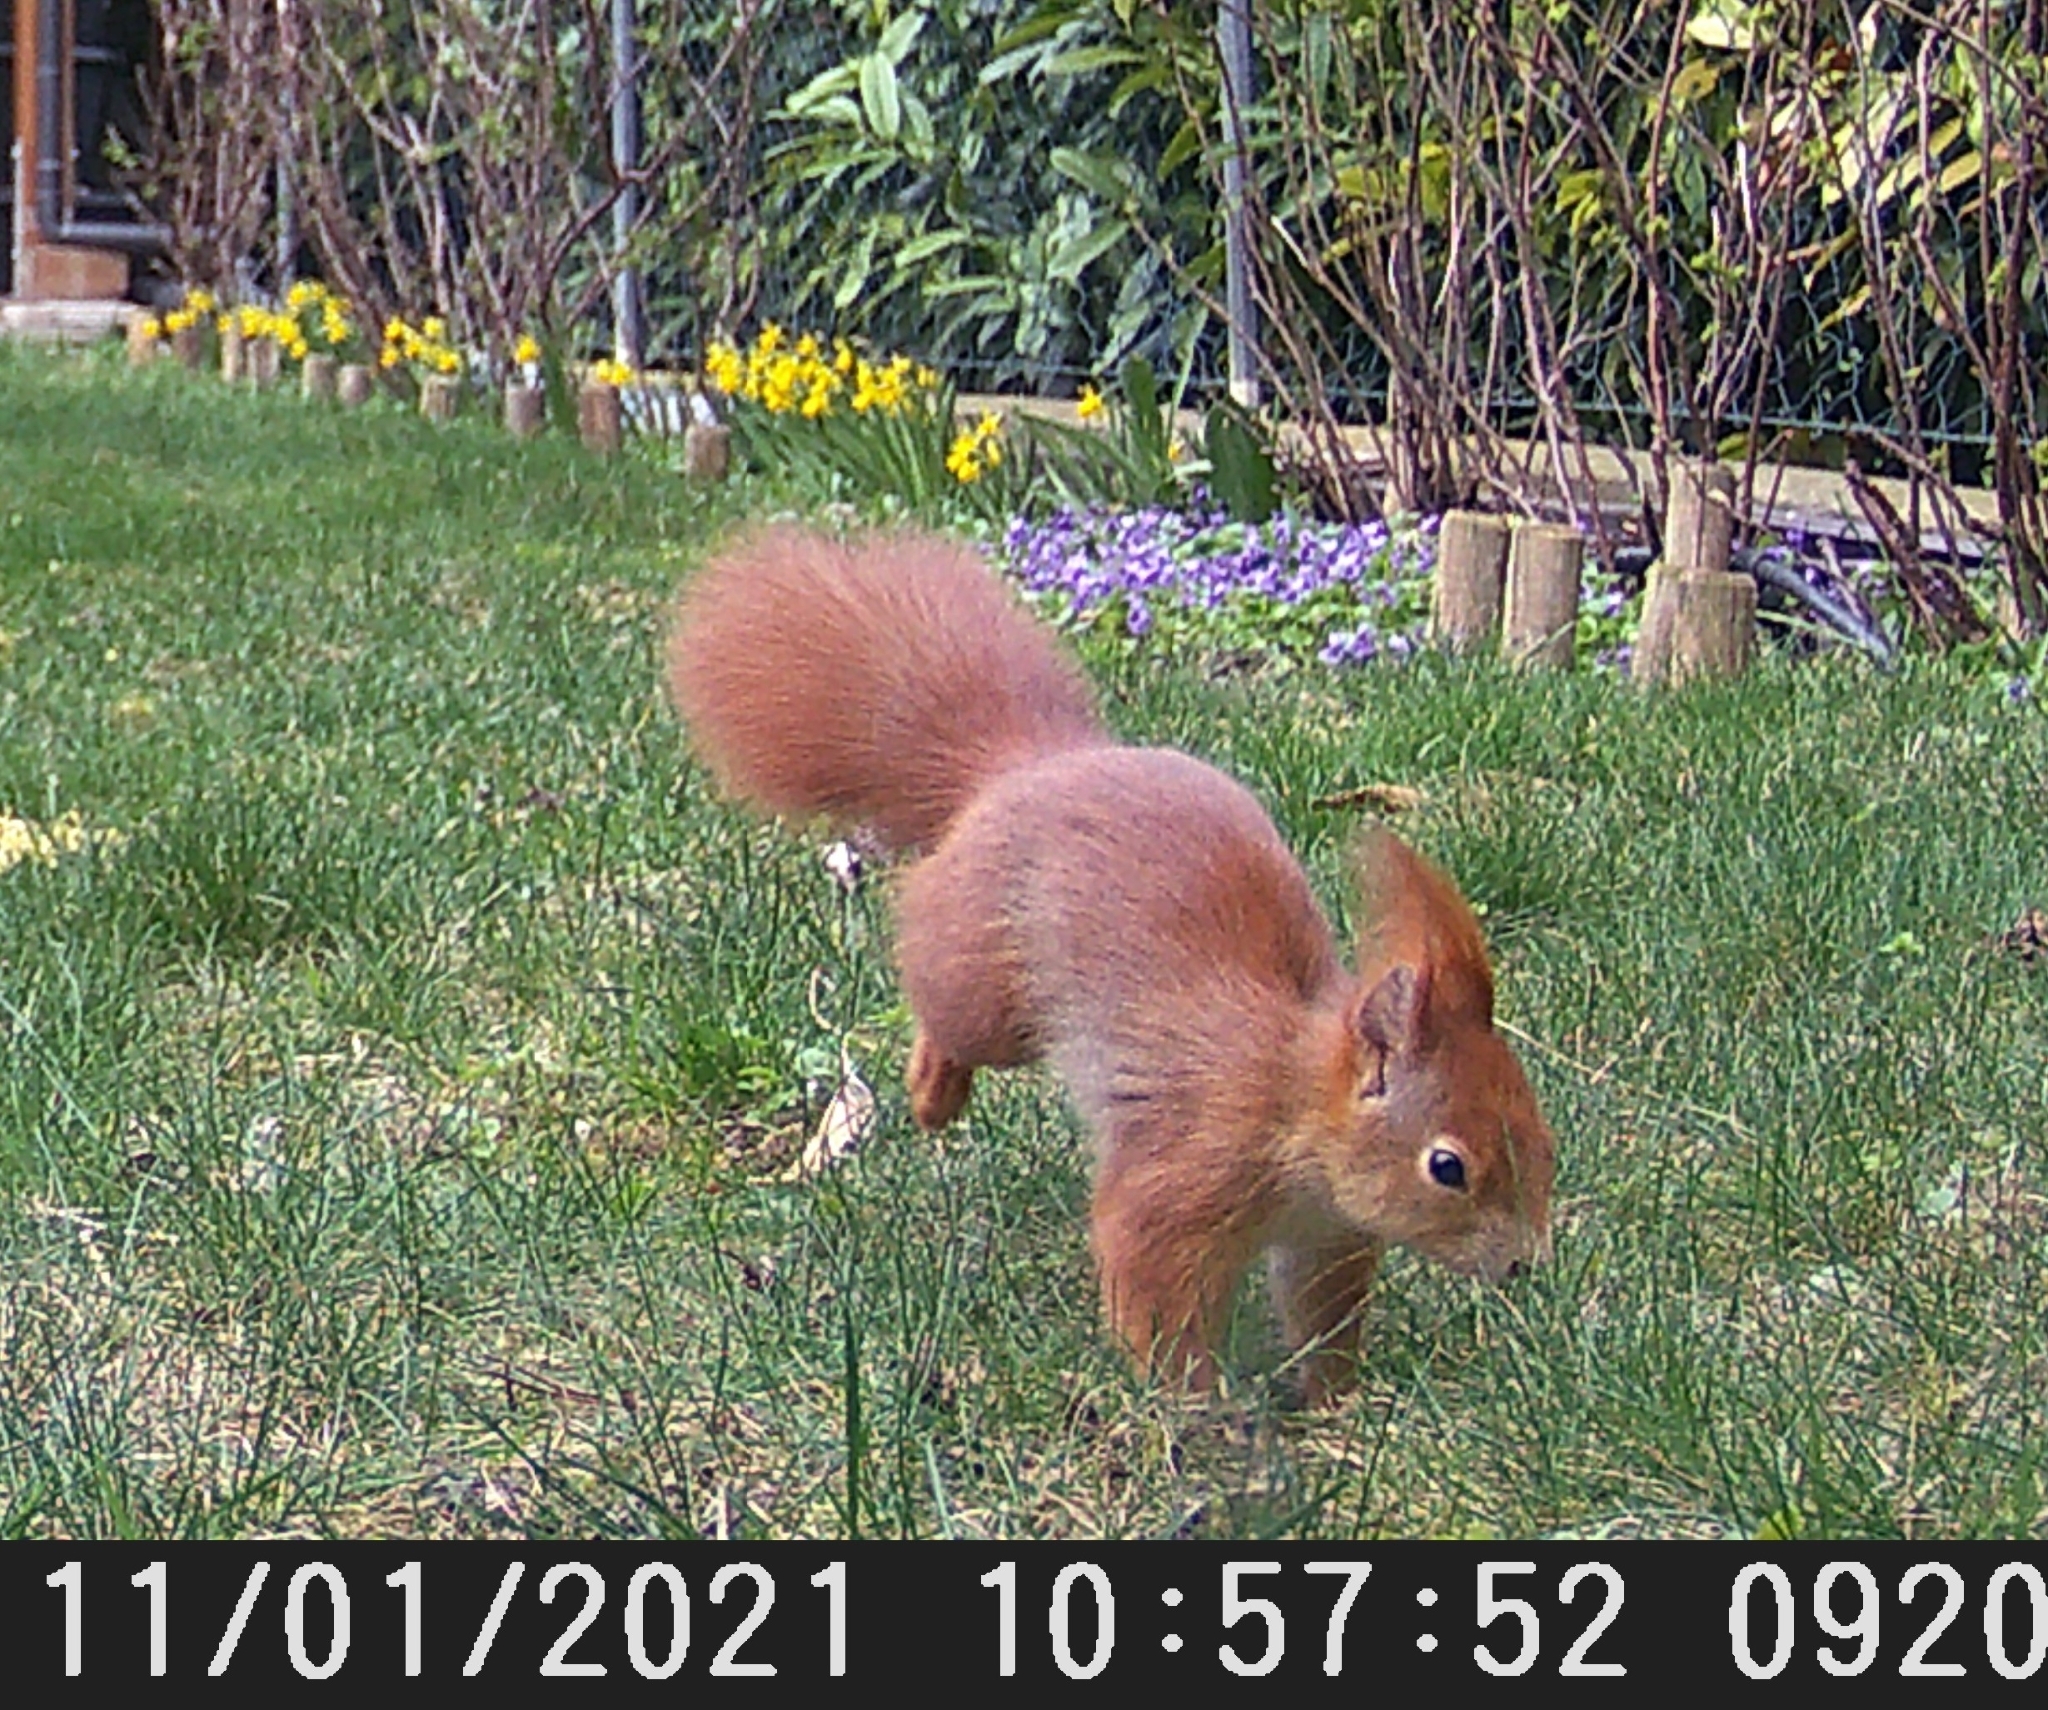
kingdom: Animalia
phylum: Chordata
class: Mammalia
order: Rodentia
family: Sciuridae
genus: Sciurus
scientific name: Sciurus vulgaris
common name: Eurasian red squirrel
